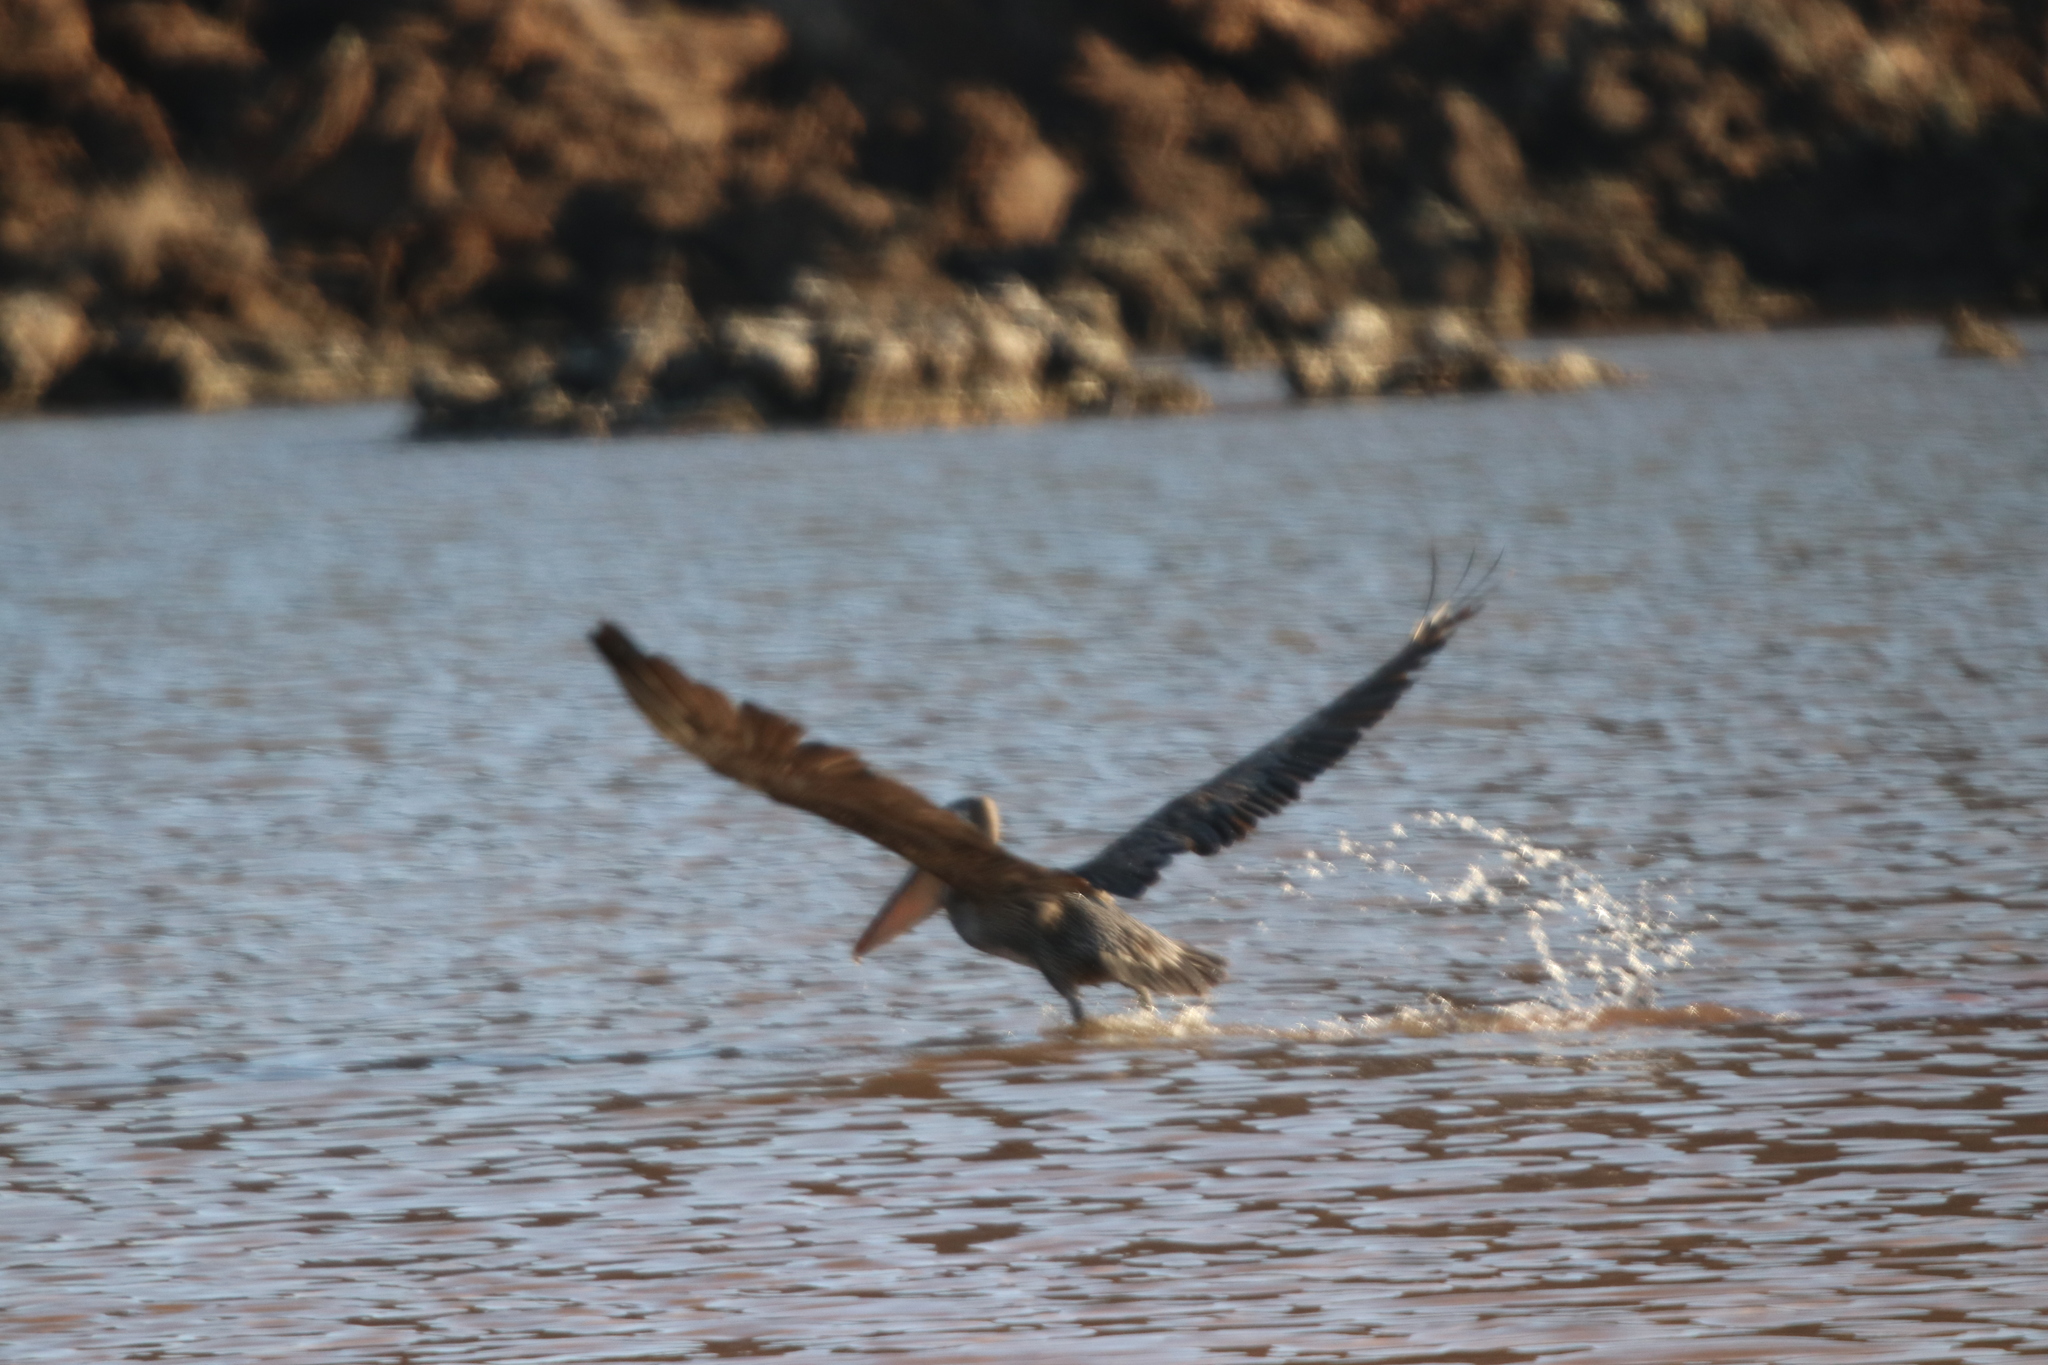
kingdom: Animalia
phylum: Chordata
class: Aves
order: Pelecaniformes
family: Pelecanidae
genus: Pelecanus
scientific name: Pelecanus occidentalis
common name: Brown pelican
